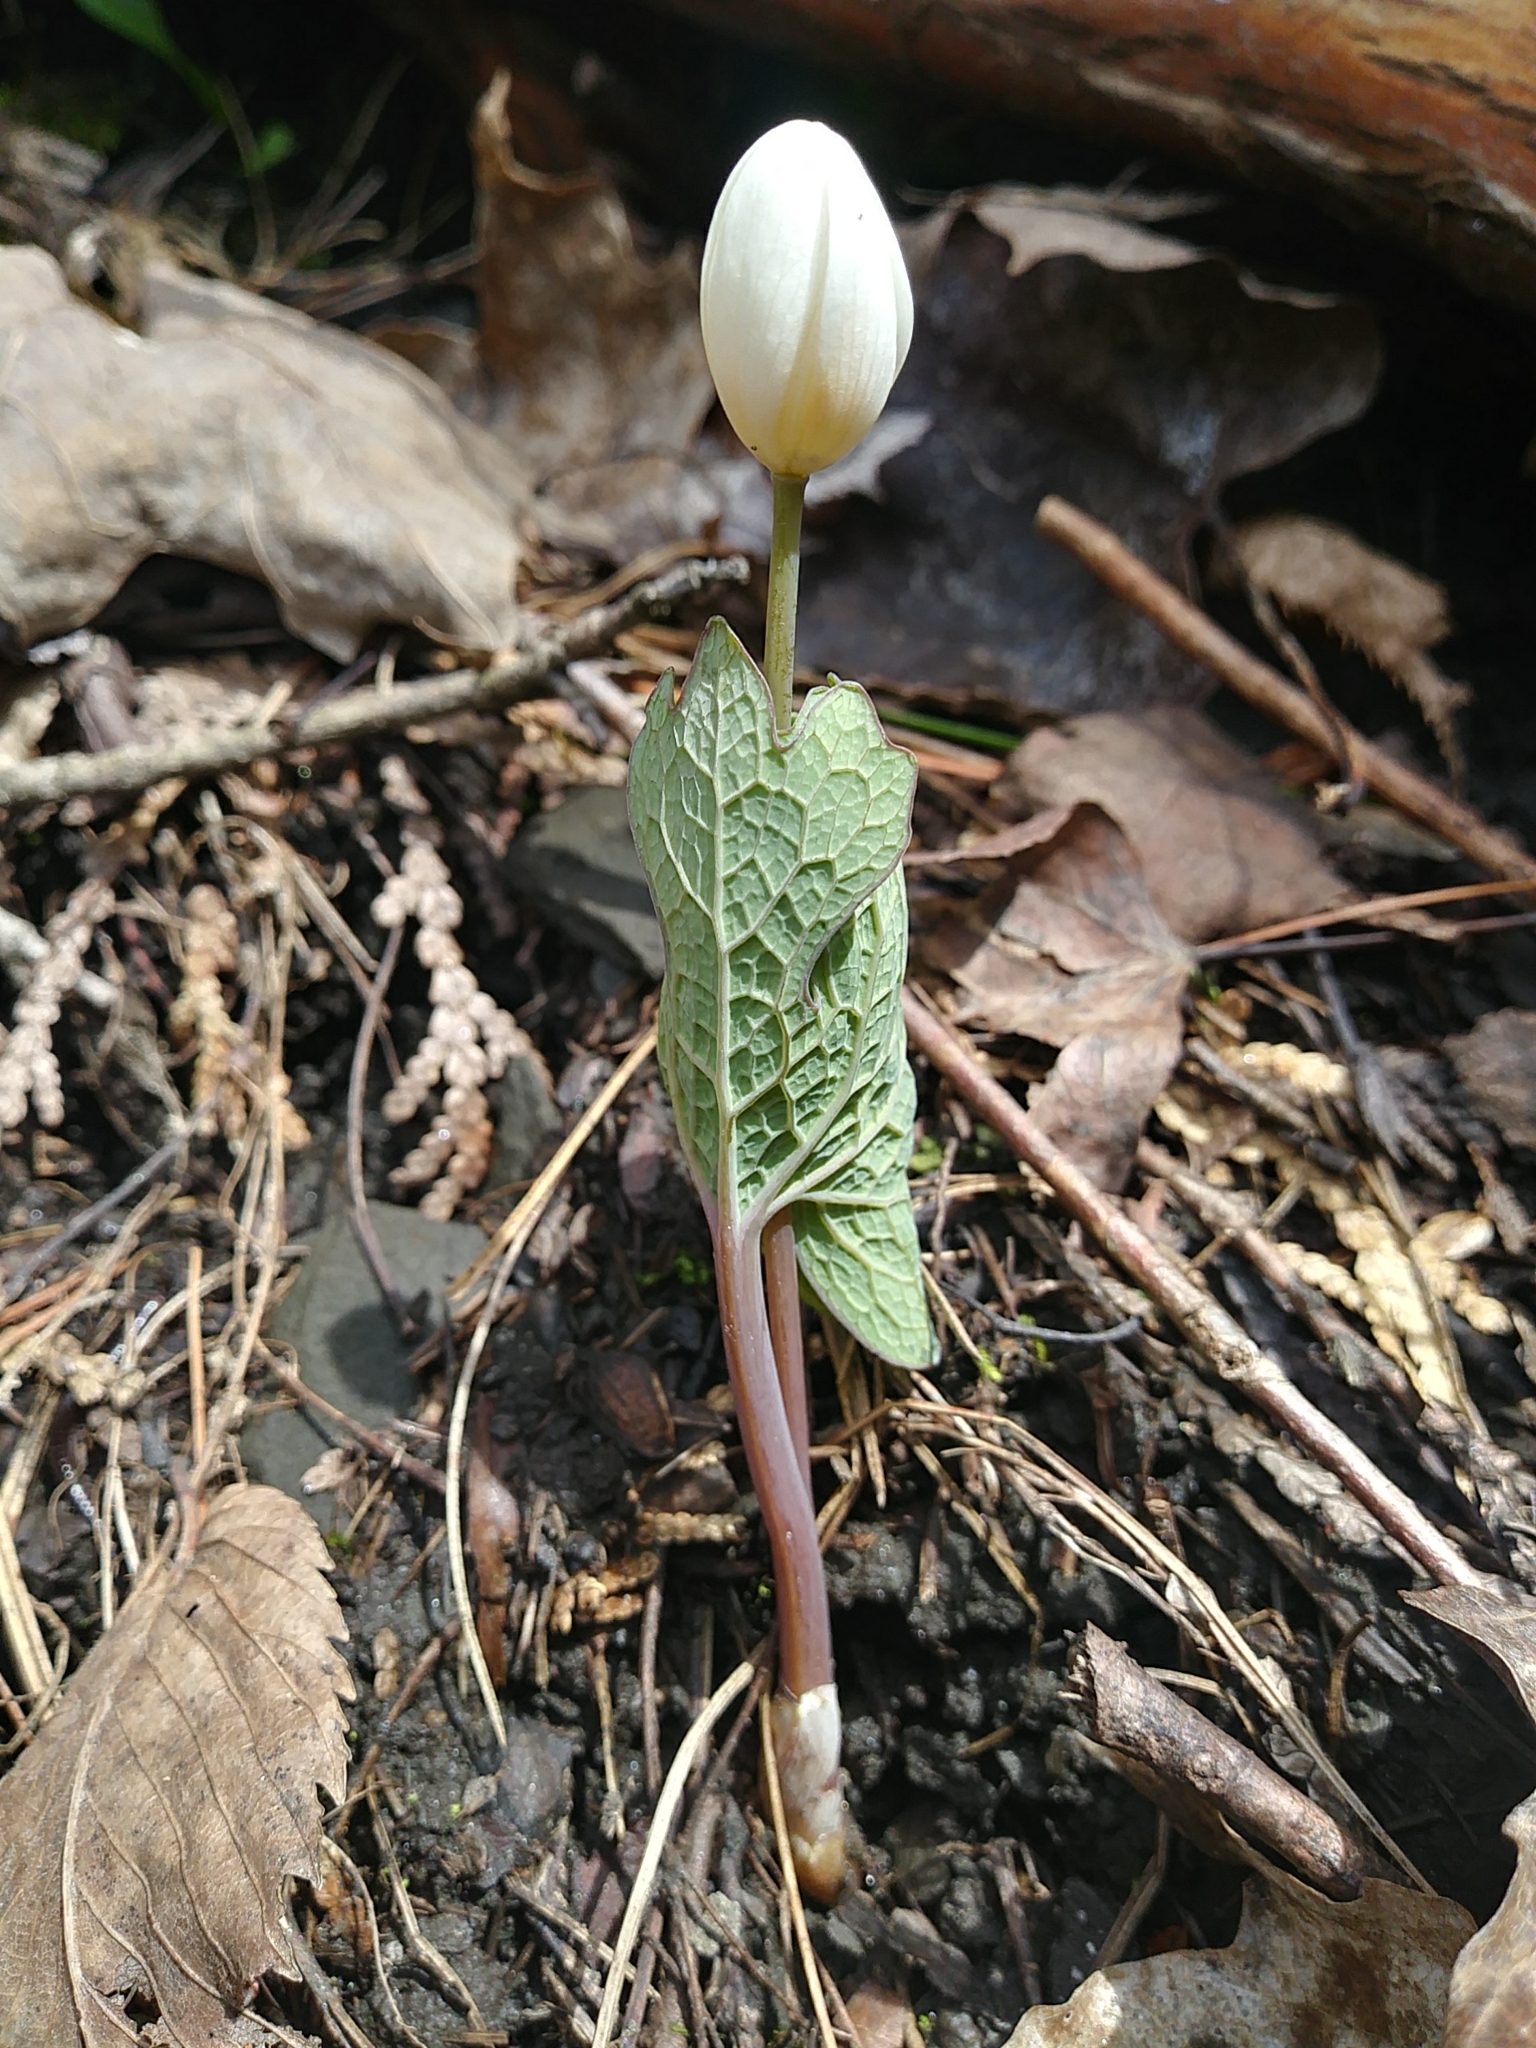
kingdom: Plantae
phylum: Tracheophyta
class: Magnoliopsida
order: Ranunculales
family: Papaveraceae
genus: Sanguinaria
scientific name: Sanguinaria canadensis
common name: Bloodroot
